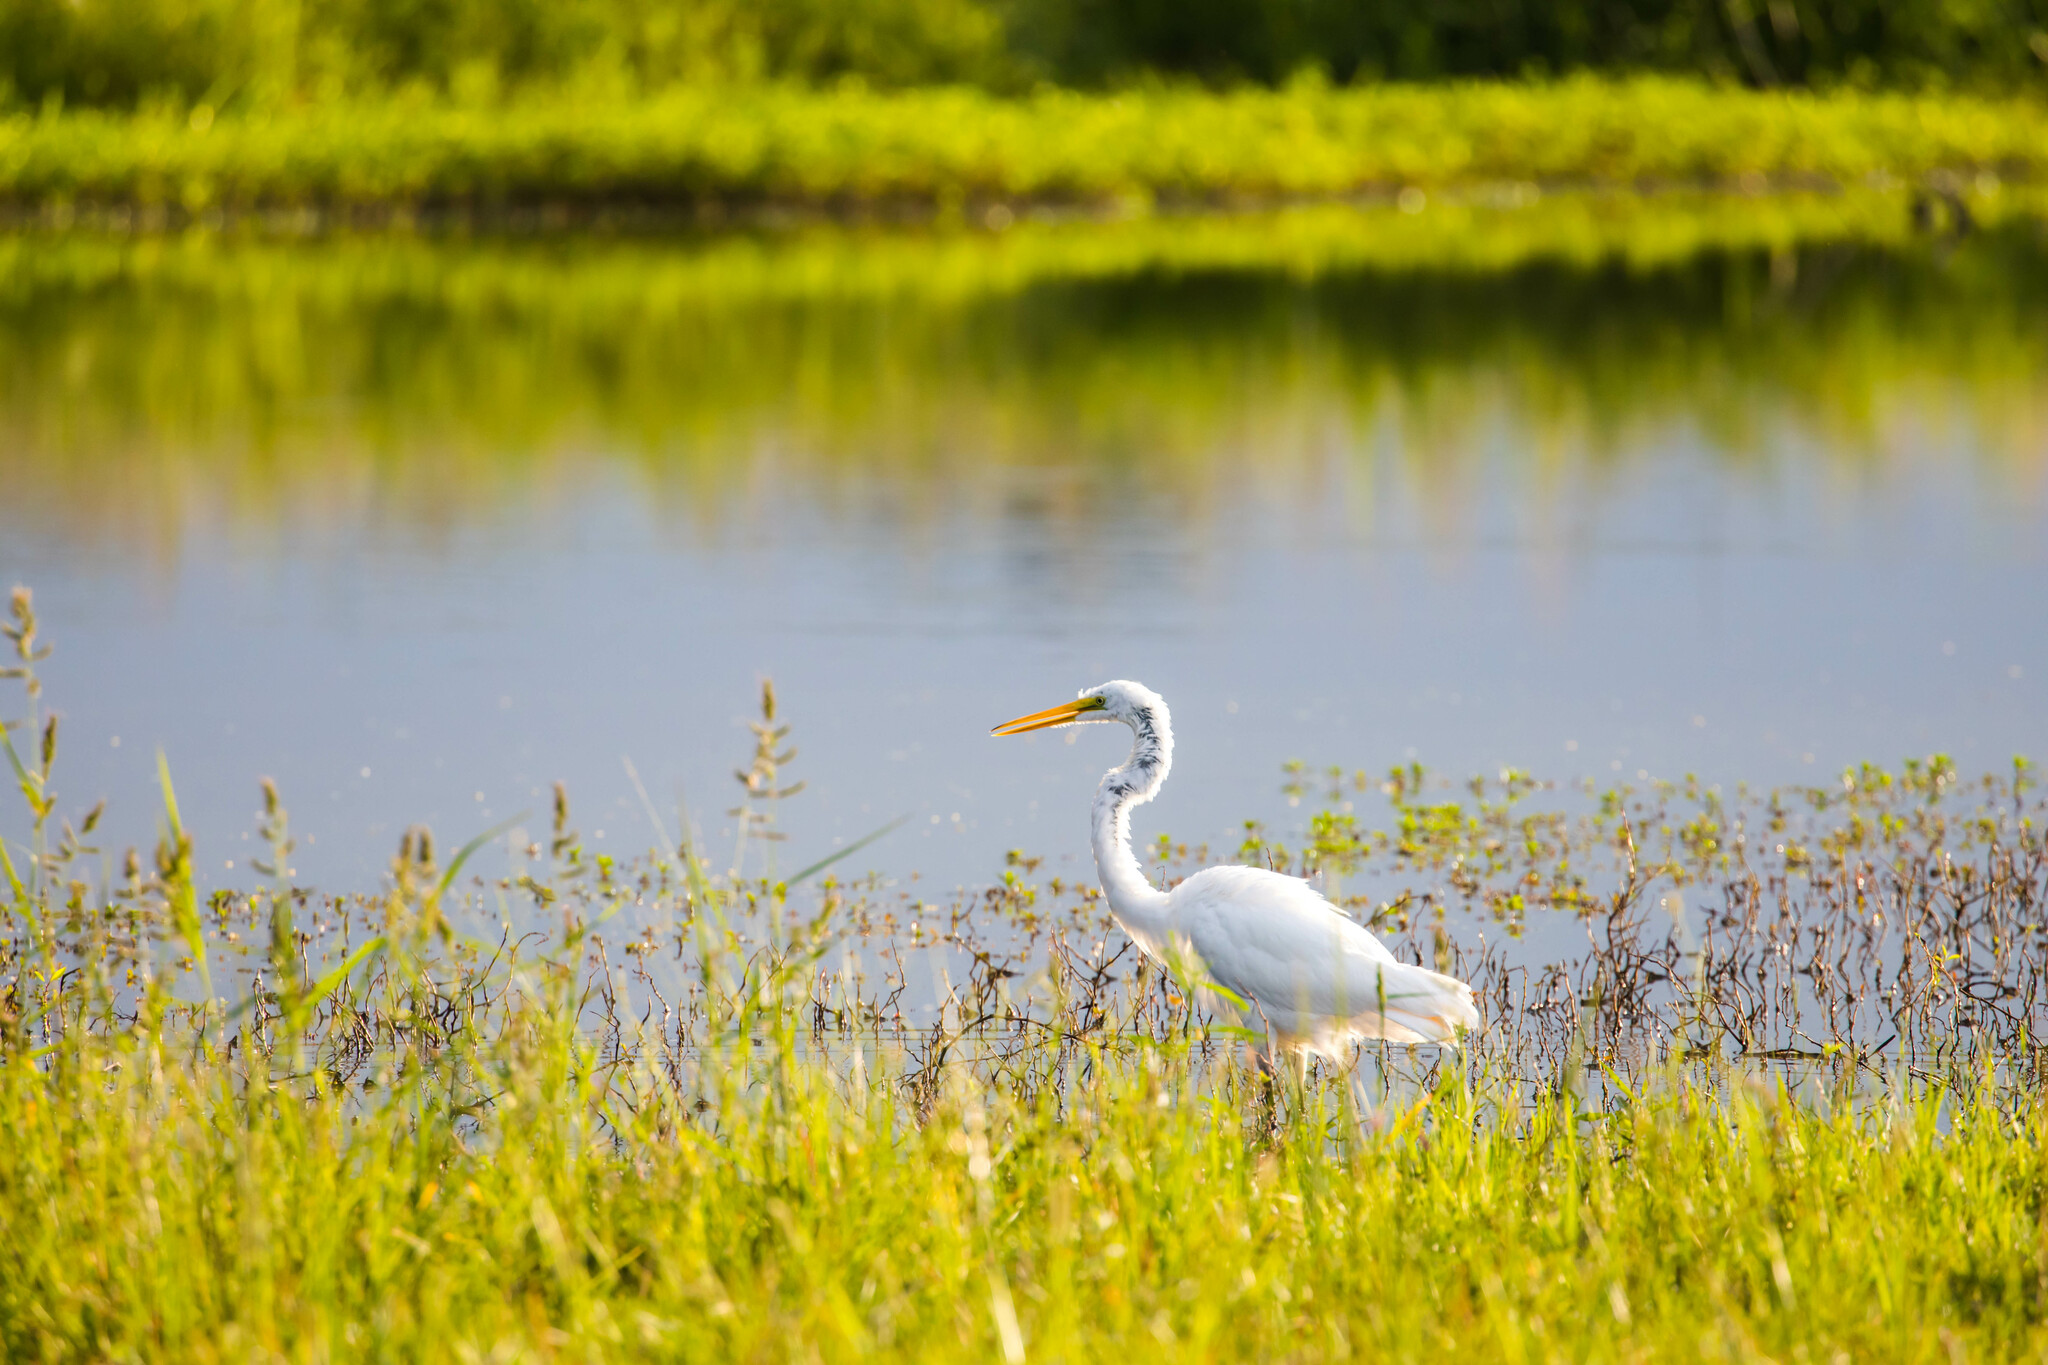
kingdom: Animalia
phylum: Chordata
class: Aves
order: Pelecaniformes
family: Ardeidae
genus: Ardea
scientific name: Ardea alba
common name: Great egret
